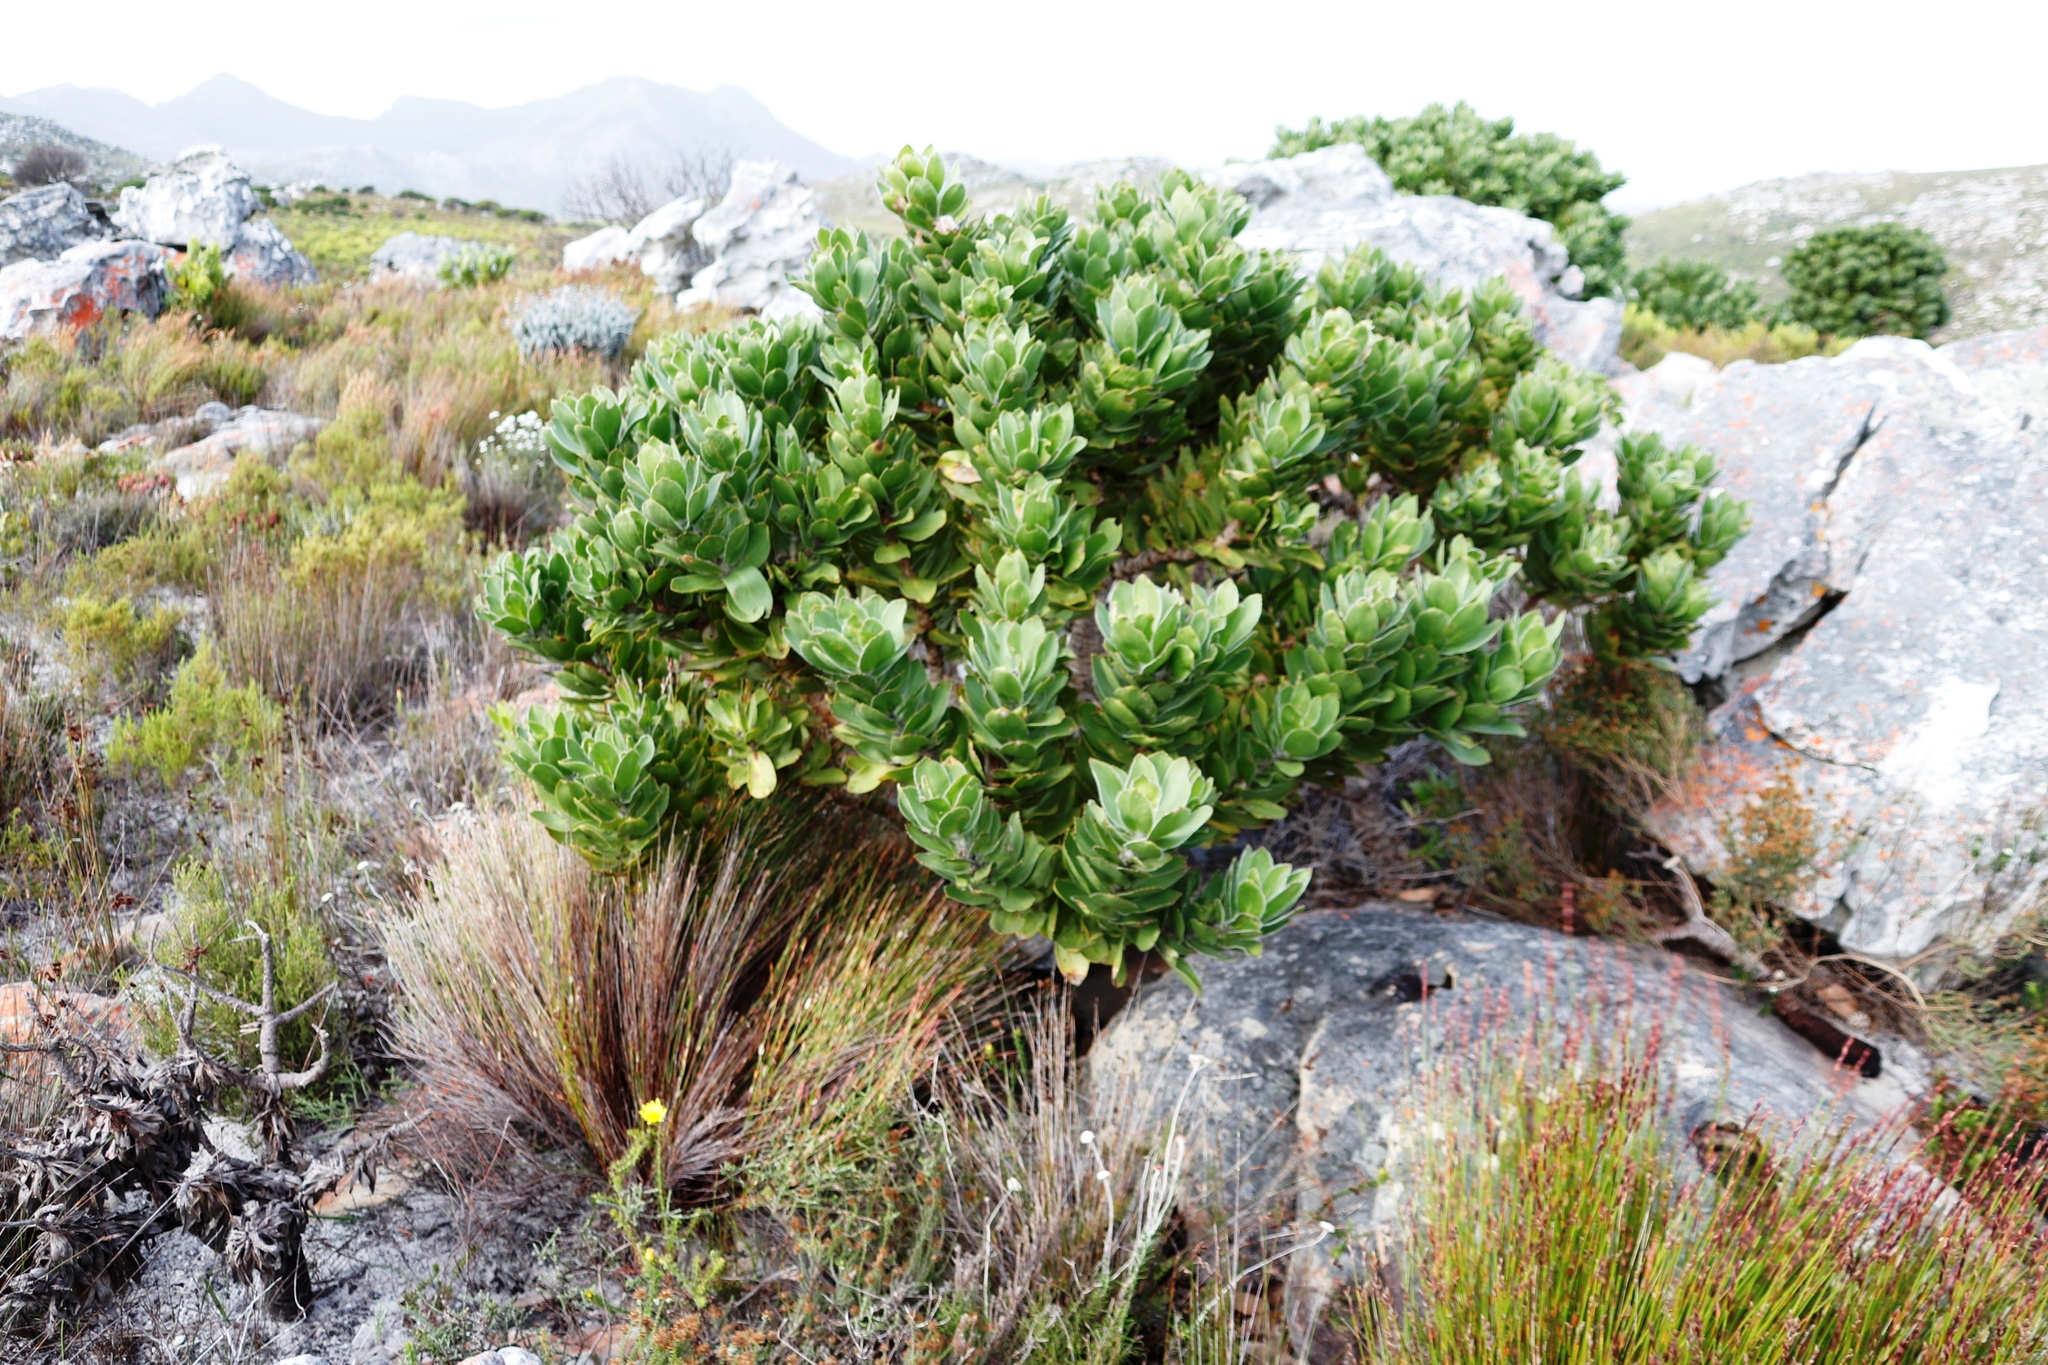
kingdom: Plantae
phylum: Tracheophyta
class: Magnoliopsida
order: Proteales
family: Proteaceae
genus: Leucospermum
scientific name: Leucospermum conocarpodendron
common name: Tree pincushion
